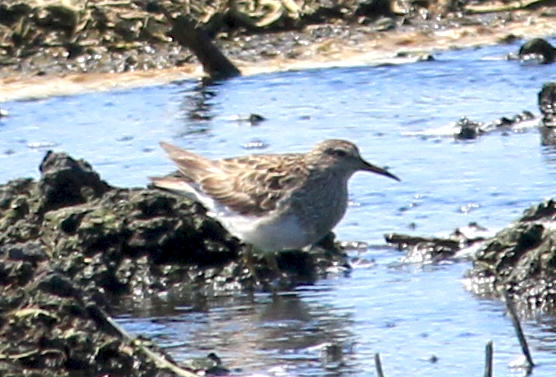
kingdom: Animalia
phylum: Chordata
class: Aves
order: Charadriiformes
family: Scolopacidae
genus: Calidris
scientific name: Calidris melanotos
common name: Pectoral sandpiper
